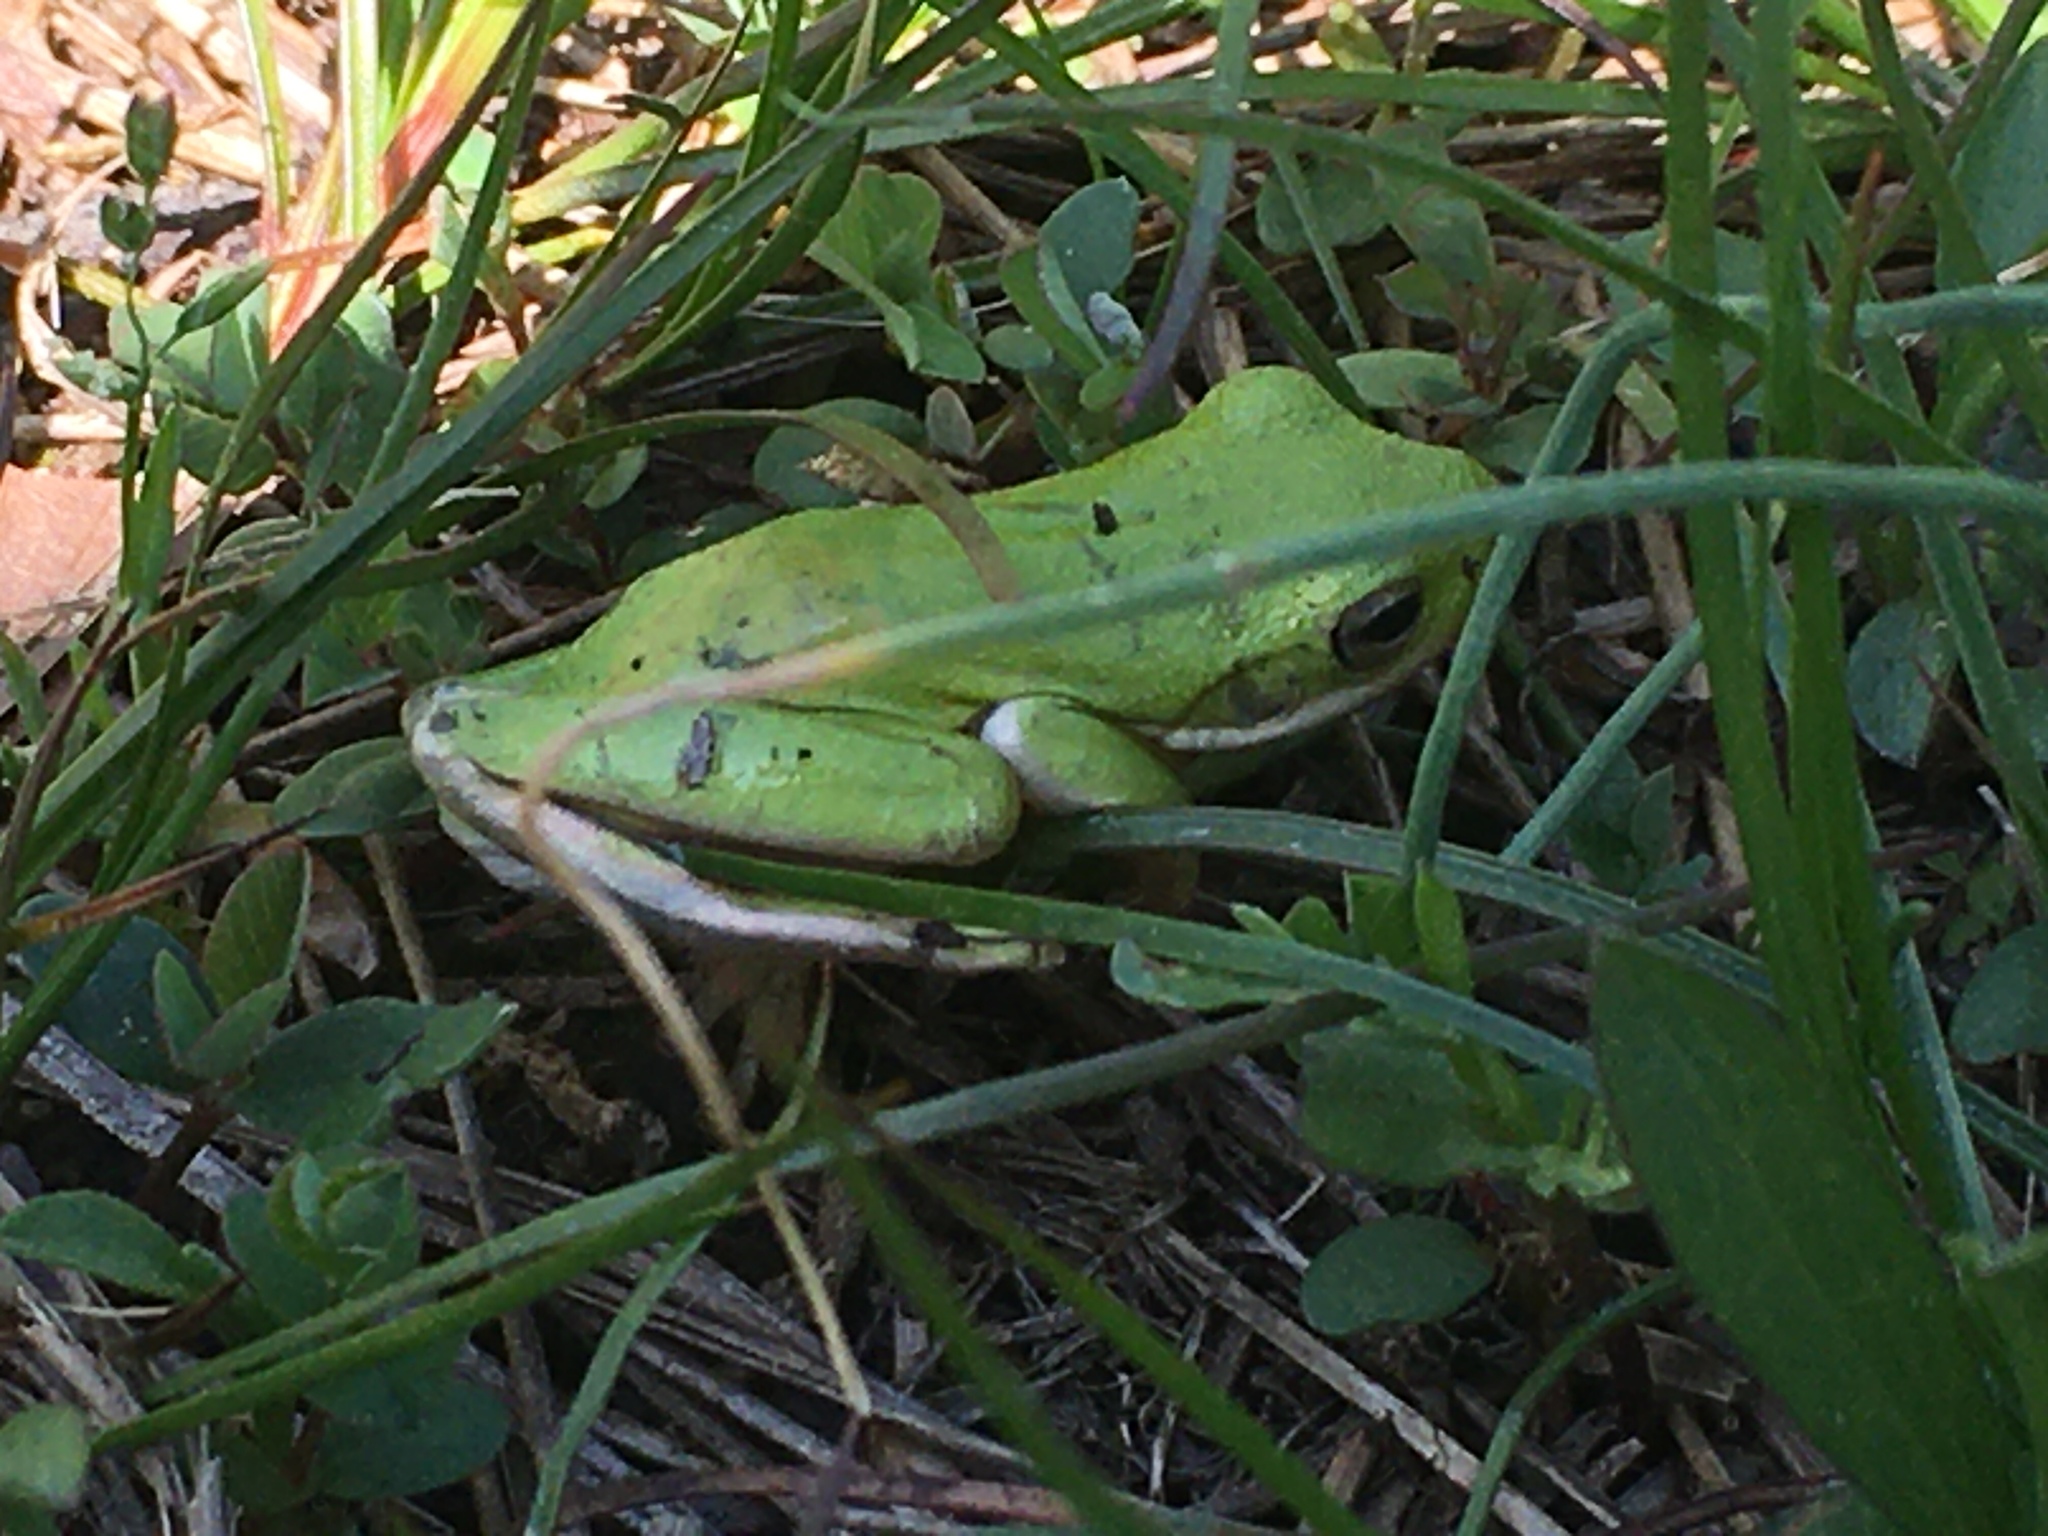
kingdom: Animalia
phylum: Chordata
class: Amphibia
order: Anura
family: Hylidae
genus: Dryophytes
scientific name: Dryophytes cinereus
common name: Green treefrog
